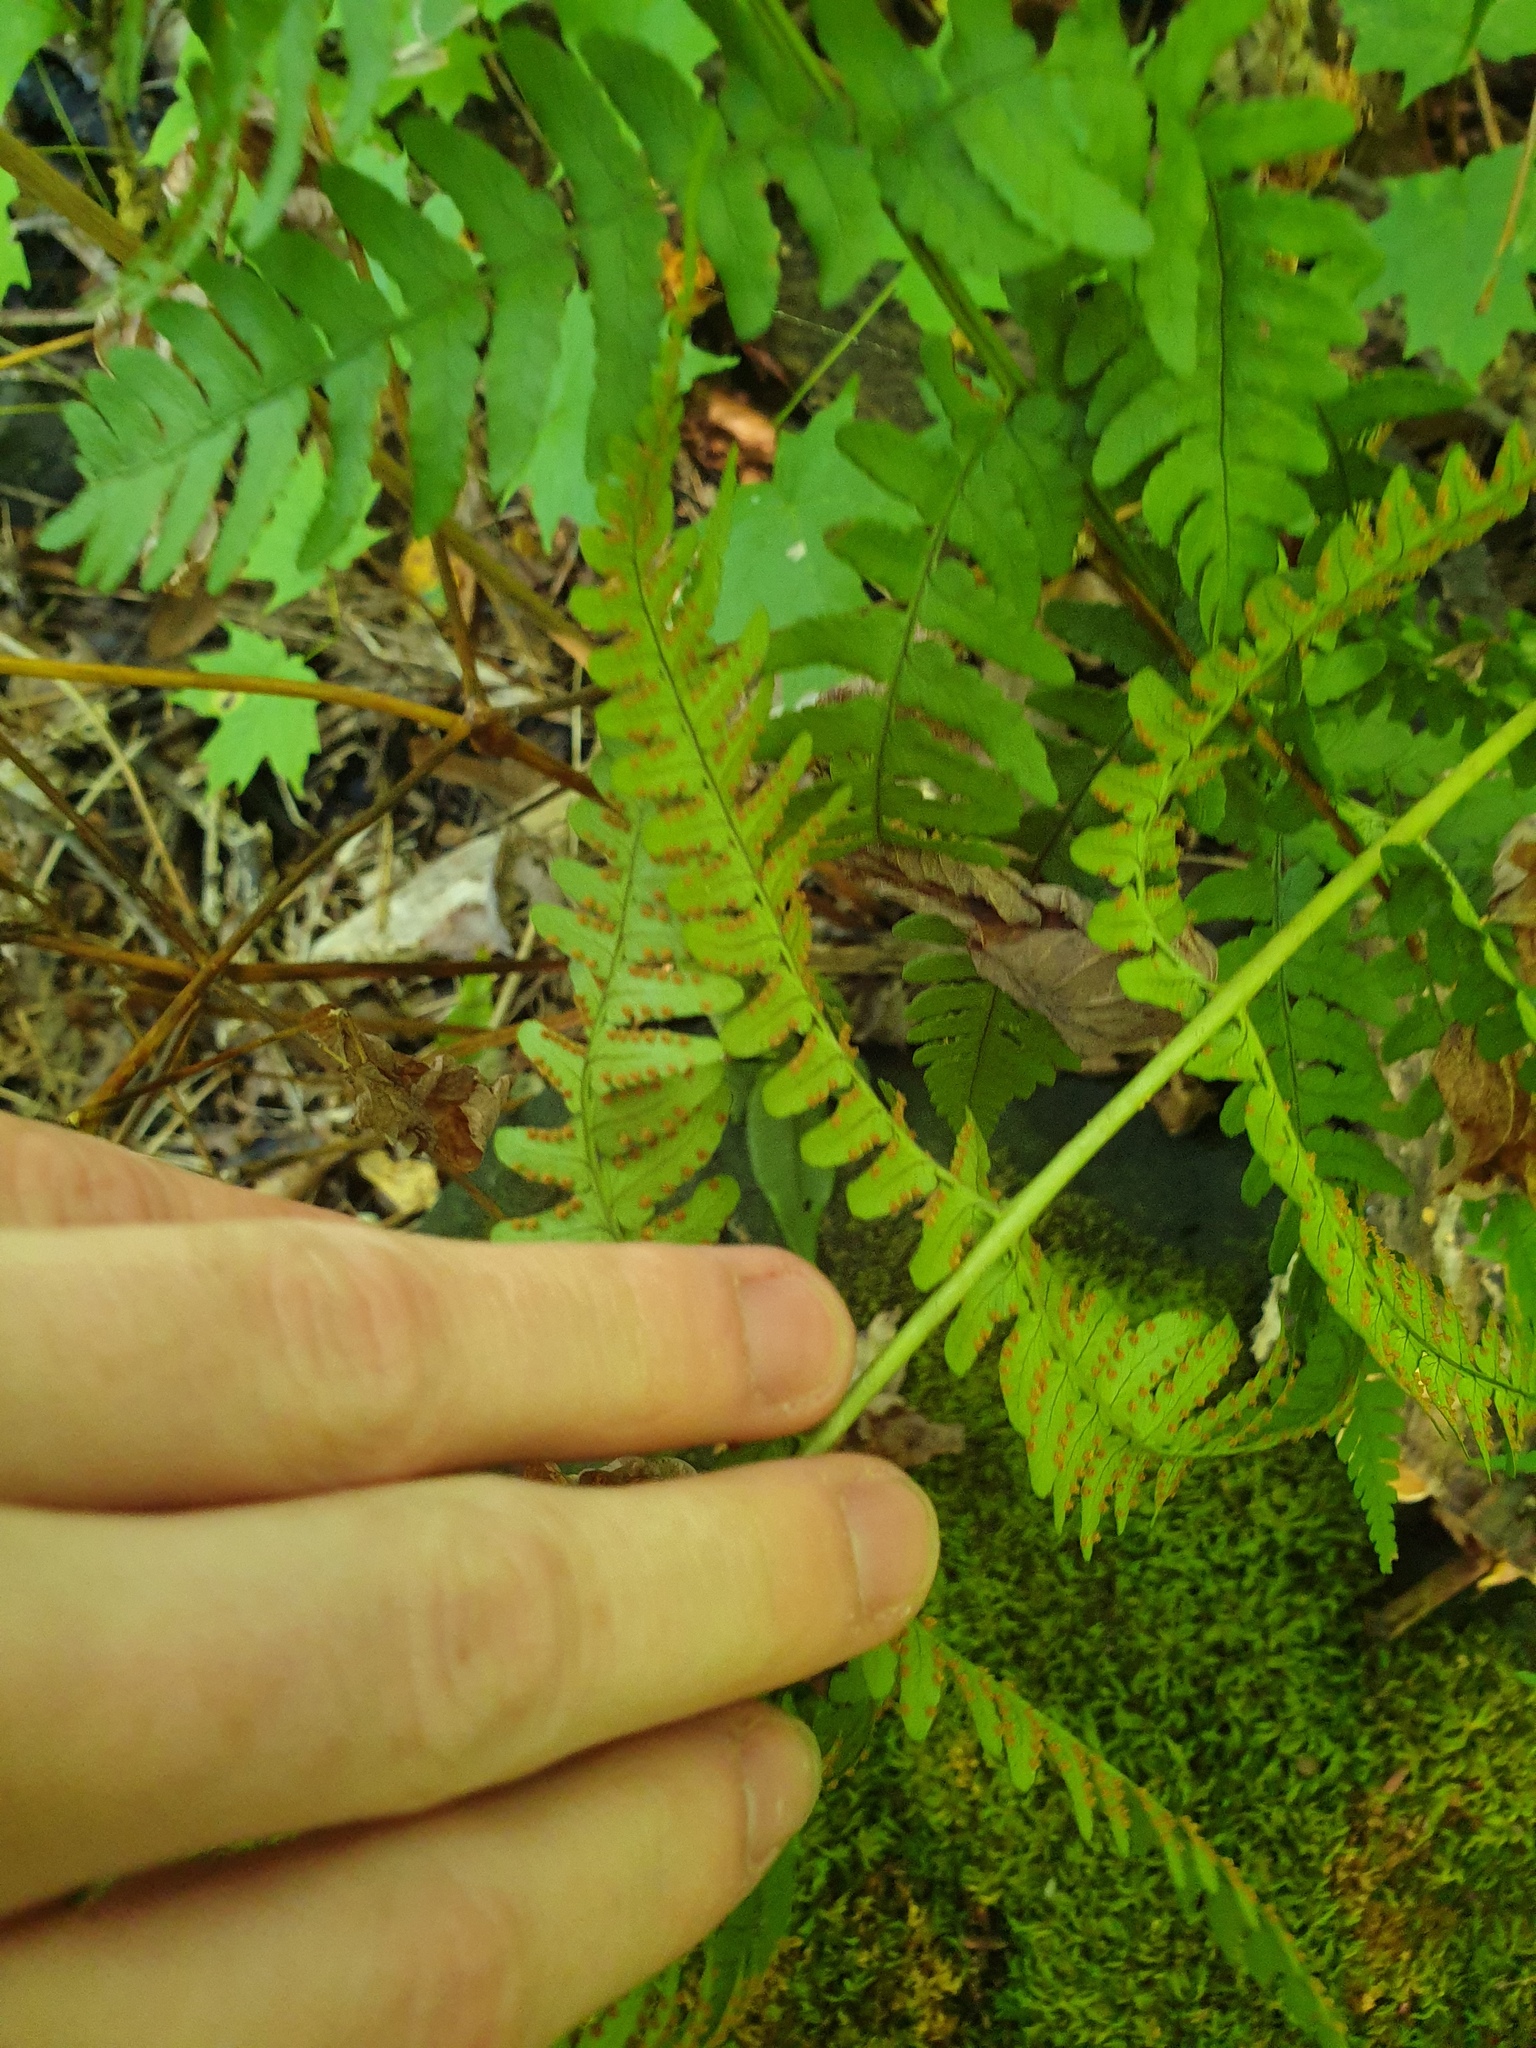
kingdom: Plantae
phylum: Tracheophyta
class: Polypodiopsida
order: Polypodiales
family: Dryopteridaceae
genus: Dryopteris
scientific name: Dryopteris marginalis
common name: Marginal wood fern
